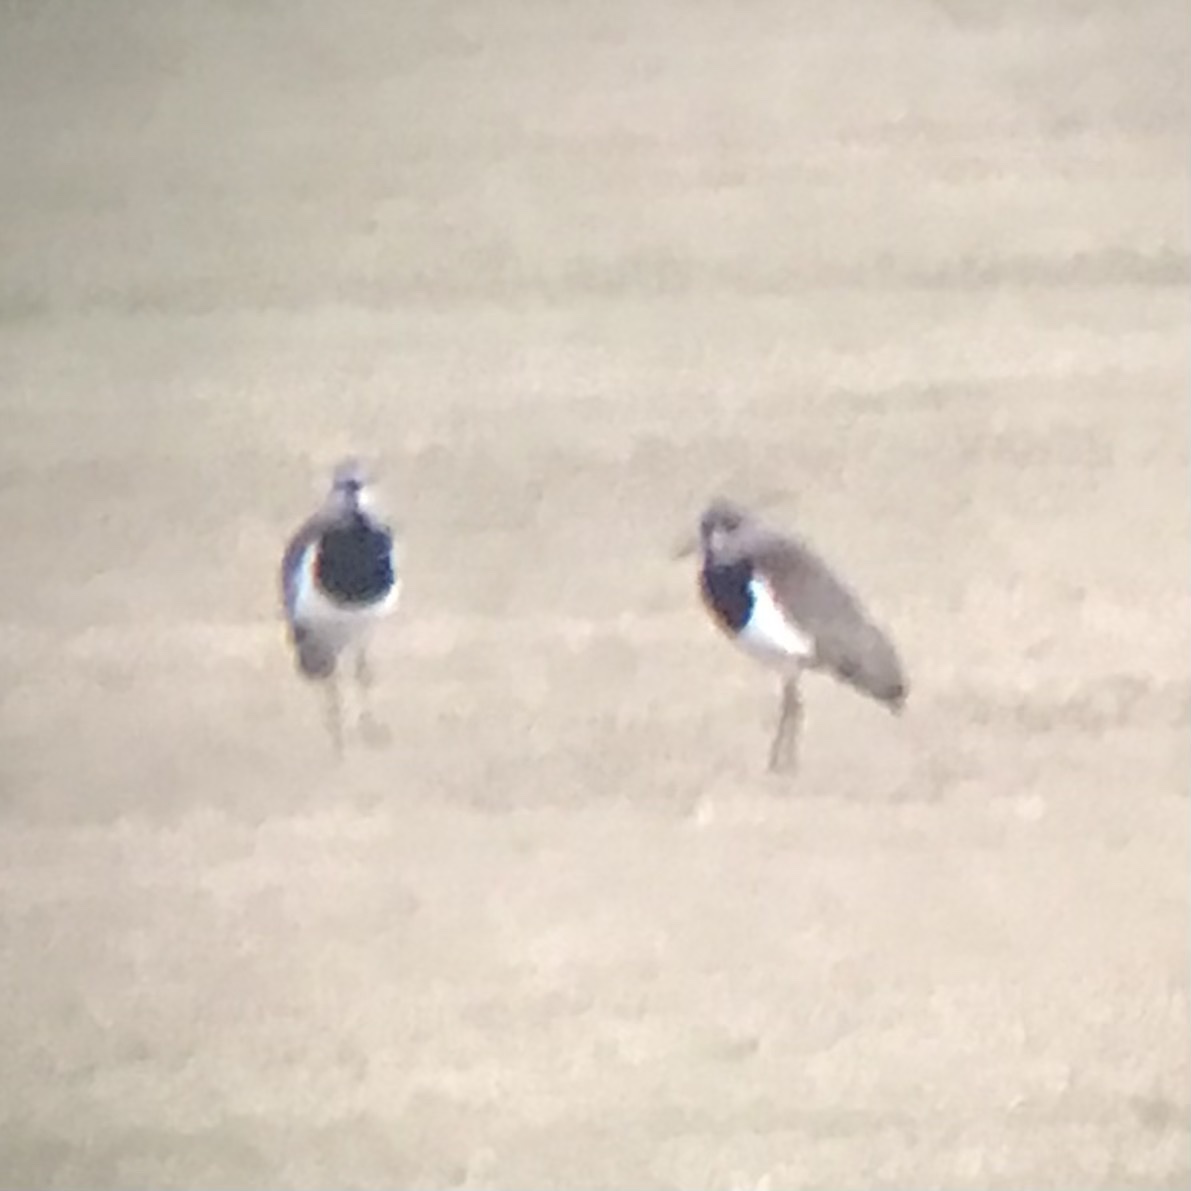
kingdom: Animalia
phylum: Chordata
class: Aves
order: Charadriiformes
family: Charadriidae
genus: Vanellus
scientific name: Vanellus chilensis
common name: Southern lapwing
